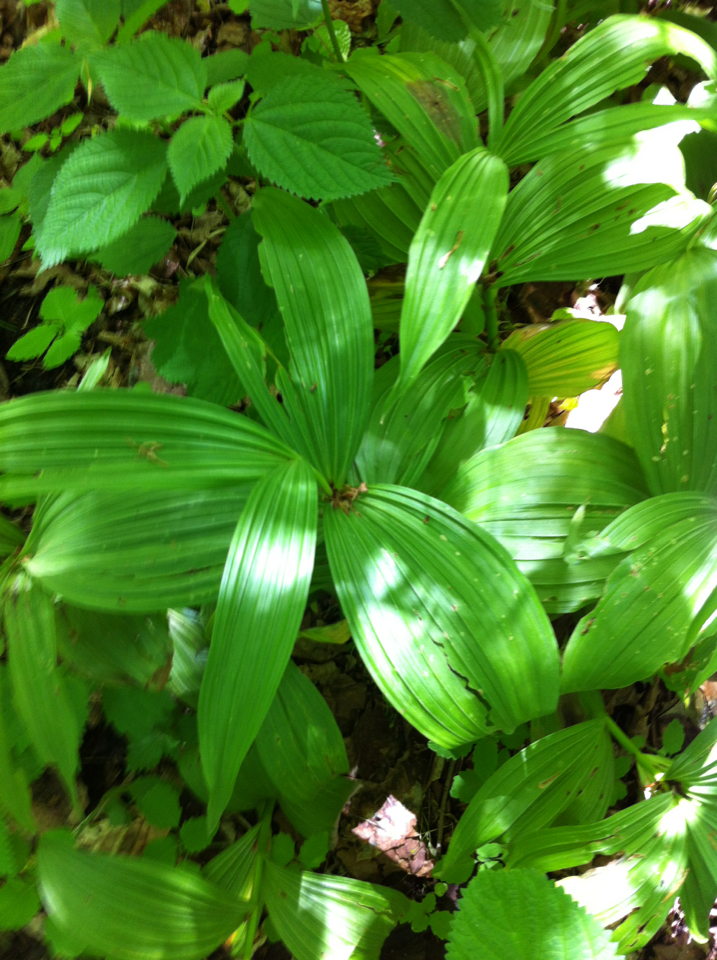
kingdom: Plantae
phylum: Tracheophyta
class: Liliopsida
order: Liliales
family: Melanthiaceae
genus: Veratrum
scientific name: Veratrum viride
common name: American false hellebore
